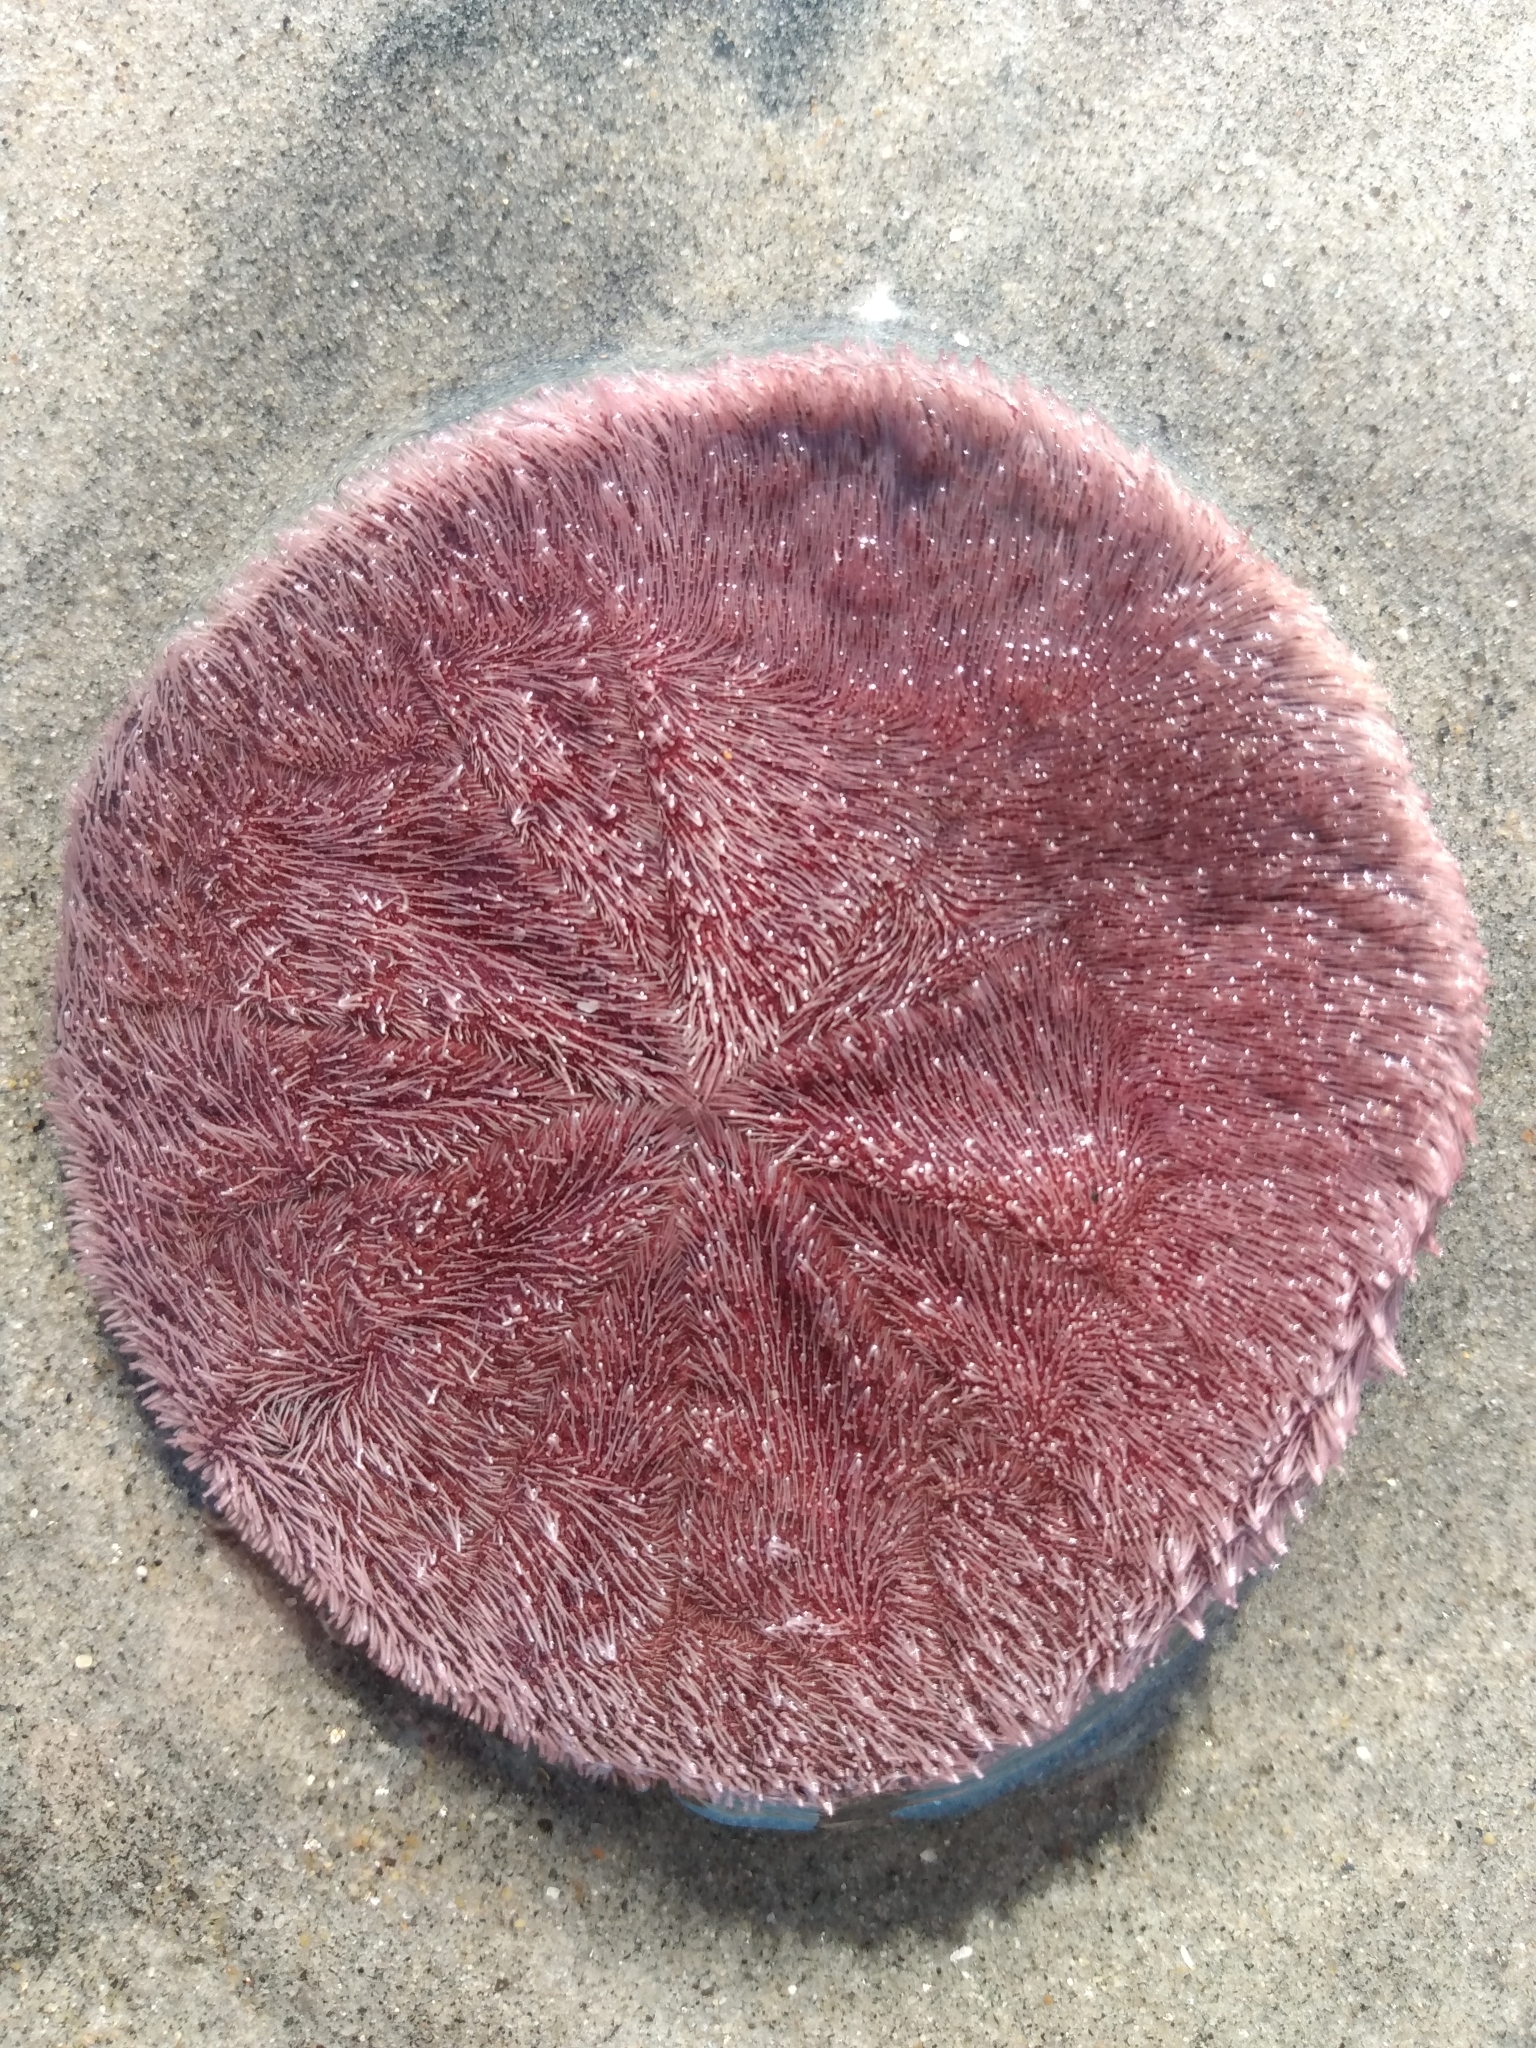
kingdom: Animalia
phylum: Echinodermata
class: Echinoidea
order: Echinolampadacea
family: Dendrasteridae
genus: Dendraster
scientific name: Dendraster excentricus
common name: Eccentric sand dollar sea urchin
